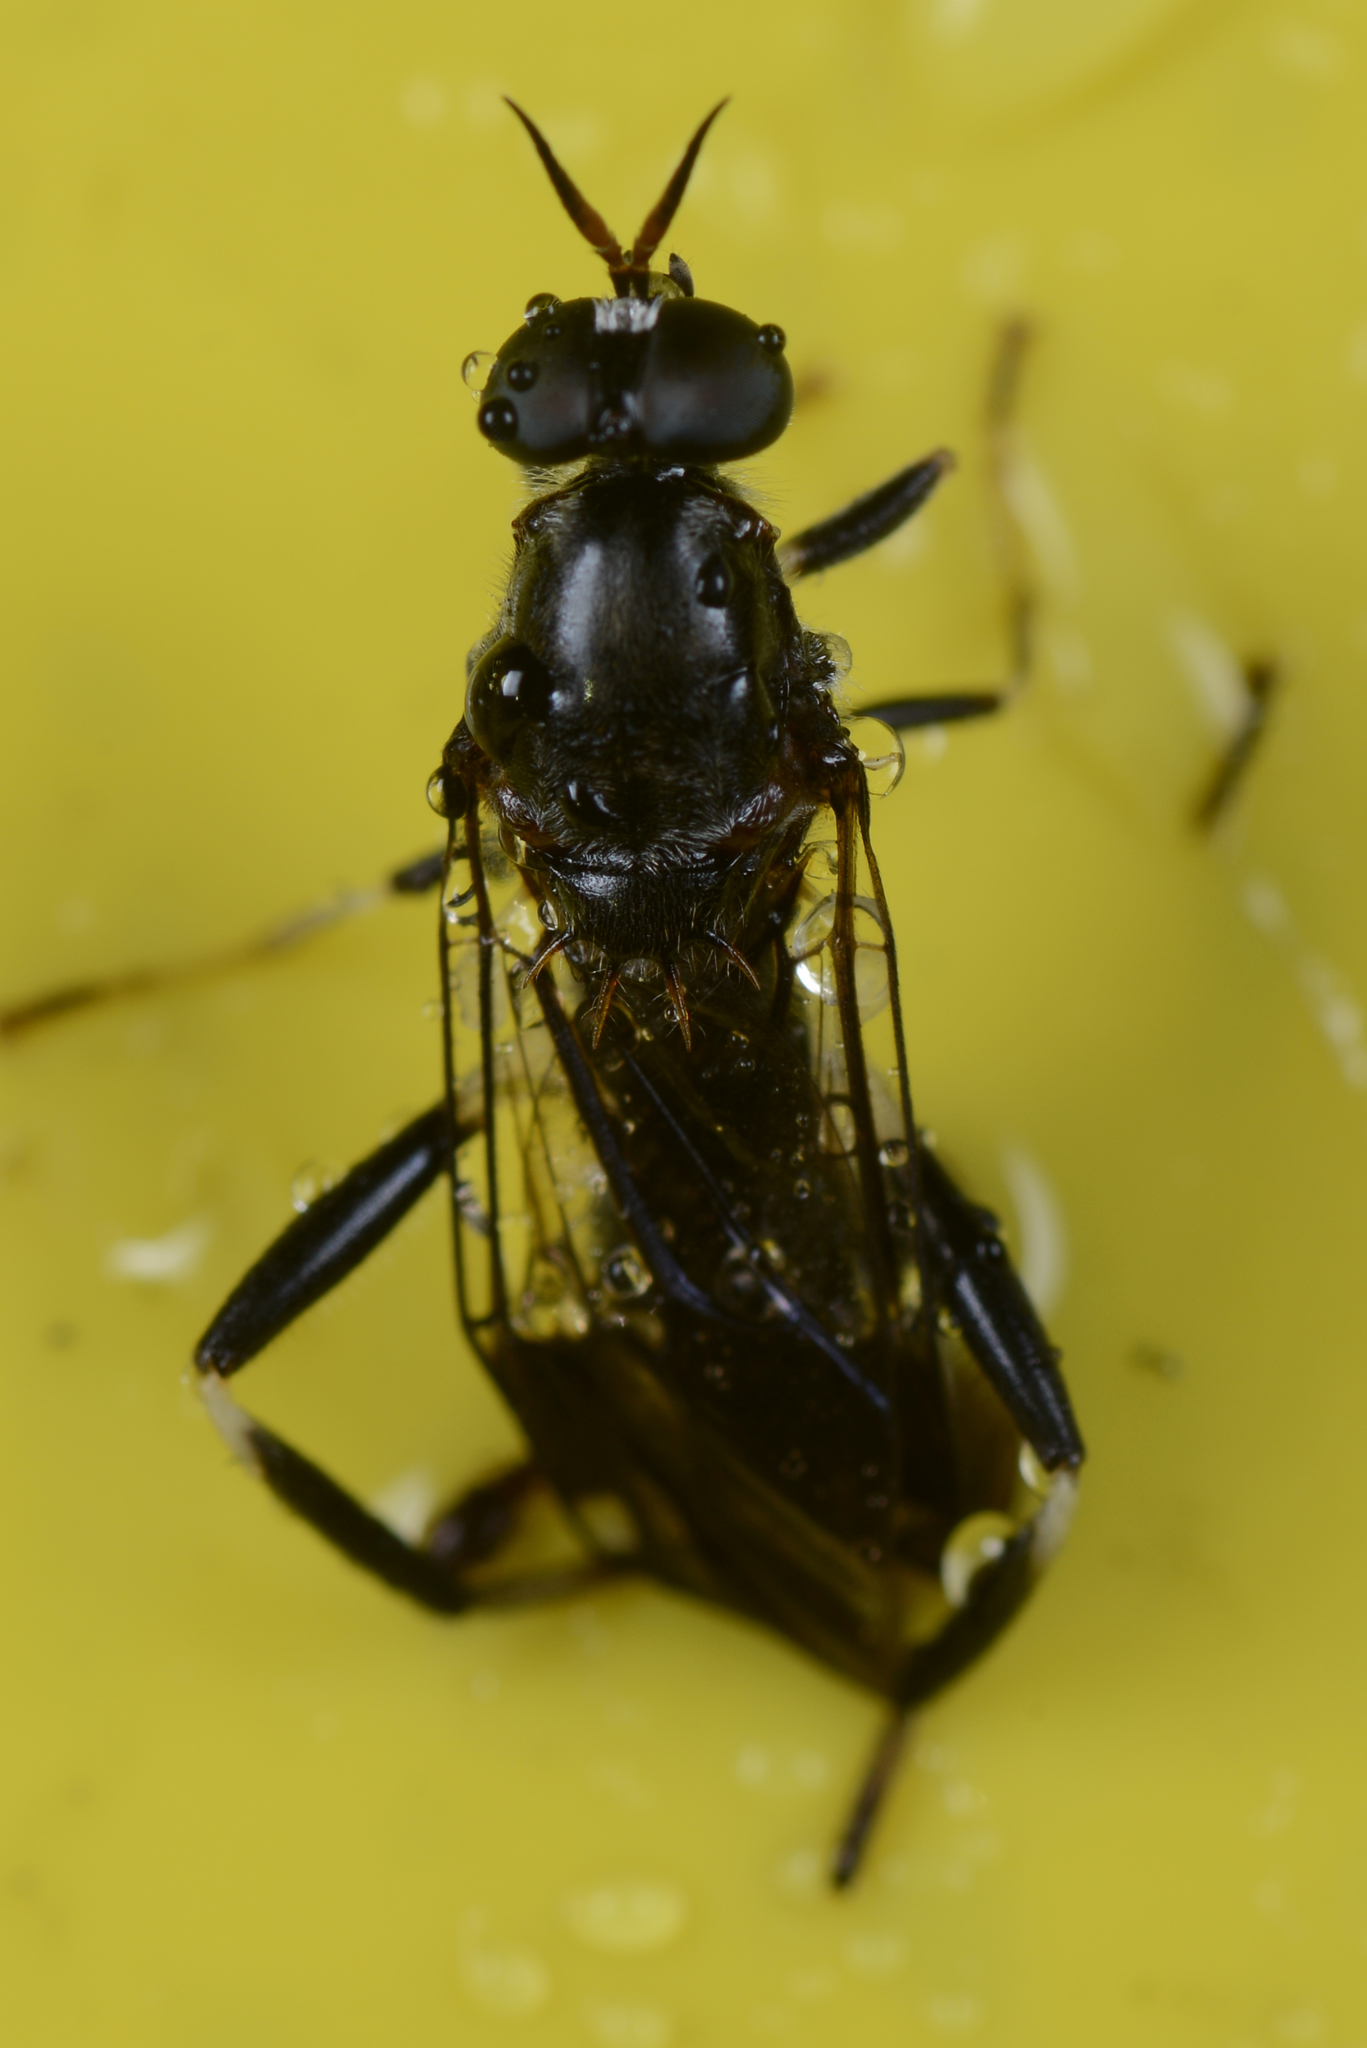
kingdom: Animalia
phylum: Arthropoda
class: Insecta
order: Diptera
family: Stratiomyidae
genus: Exaireta
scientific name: Exaireta spinigera
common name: Blue soldier fly
